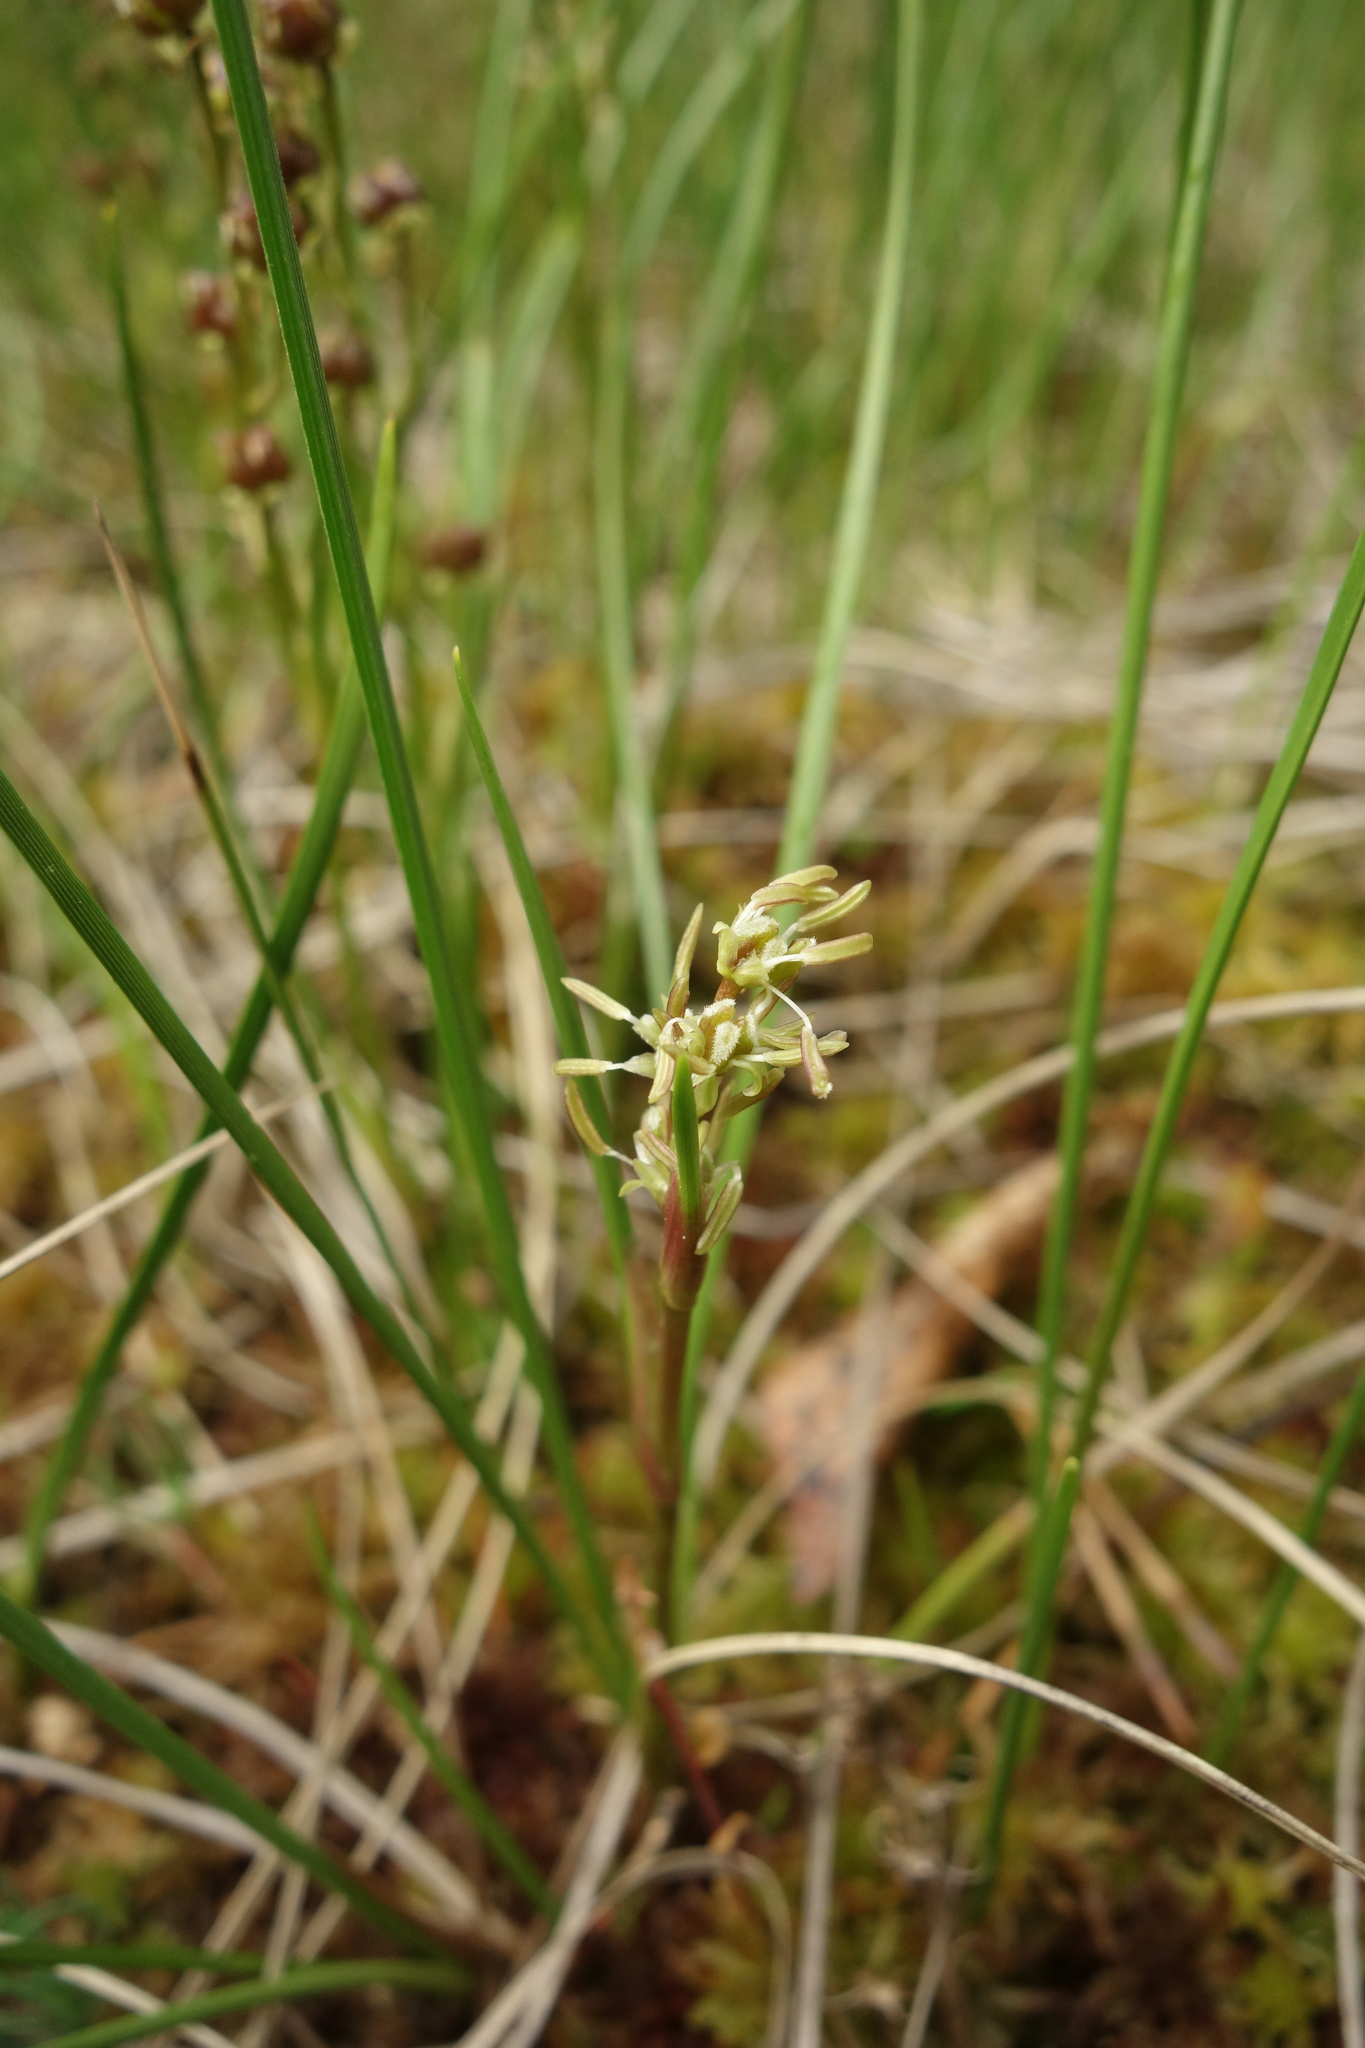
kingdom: Plantae
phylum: Tracheophyta
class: Liliopsida
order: Alismatales
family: Scheuchzeriaceae
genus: Scheuchzeria
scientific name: Scheuchzeria palustris
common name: Rannoch-rush
